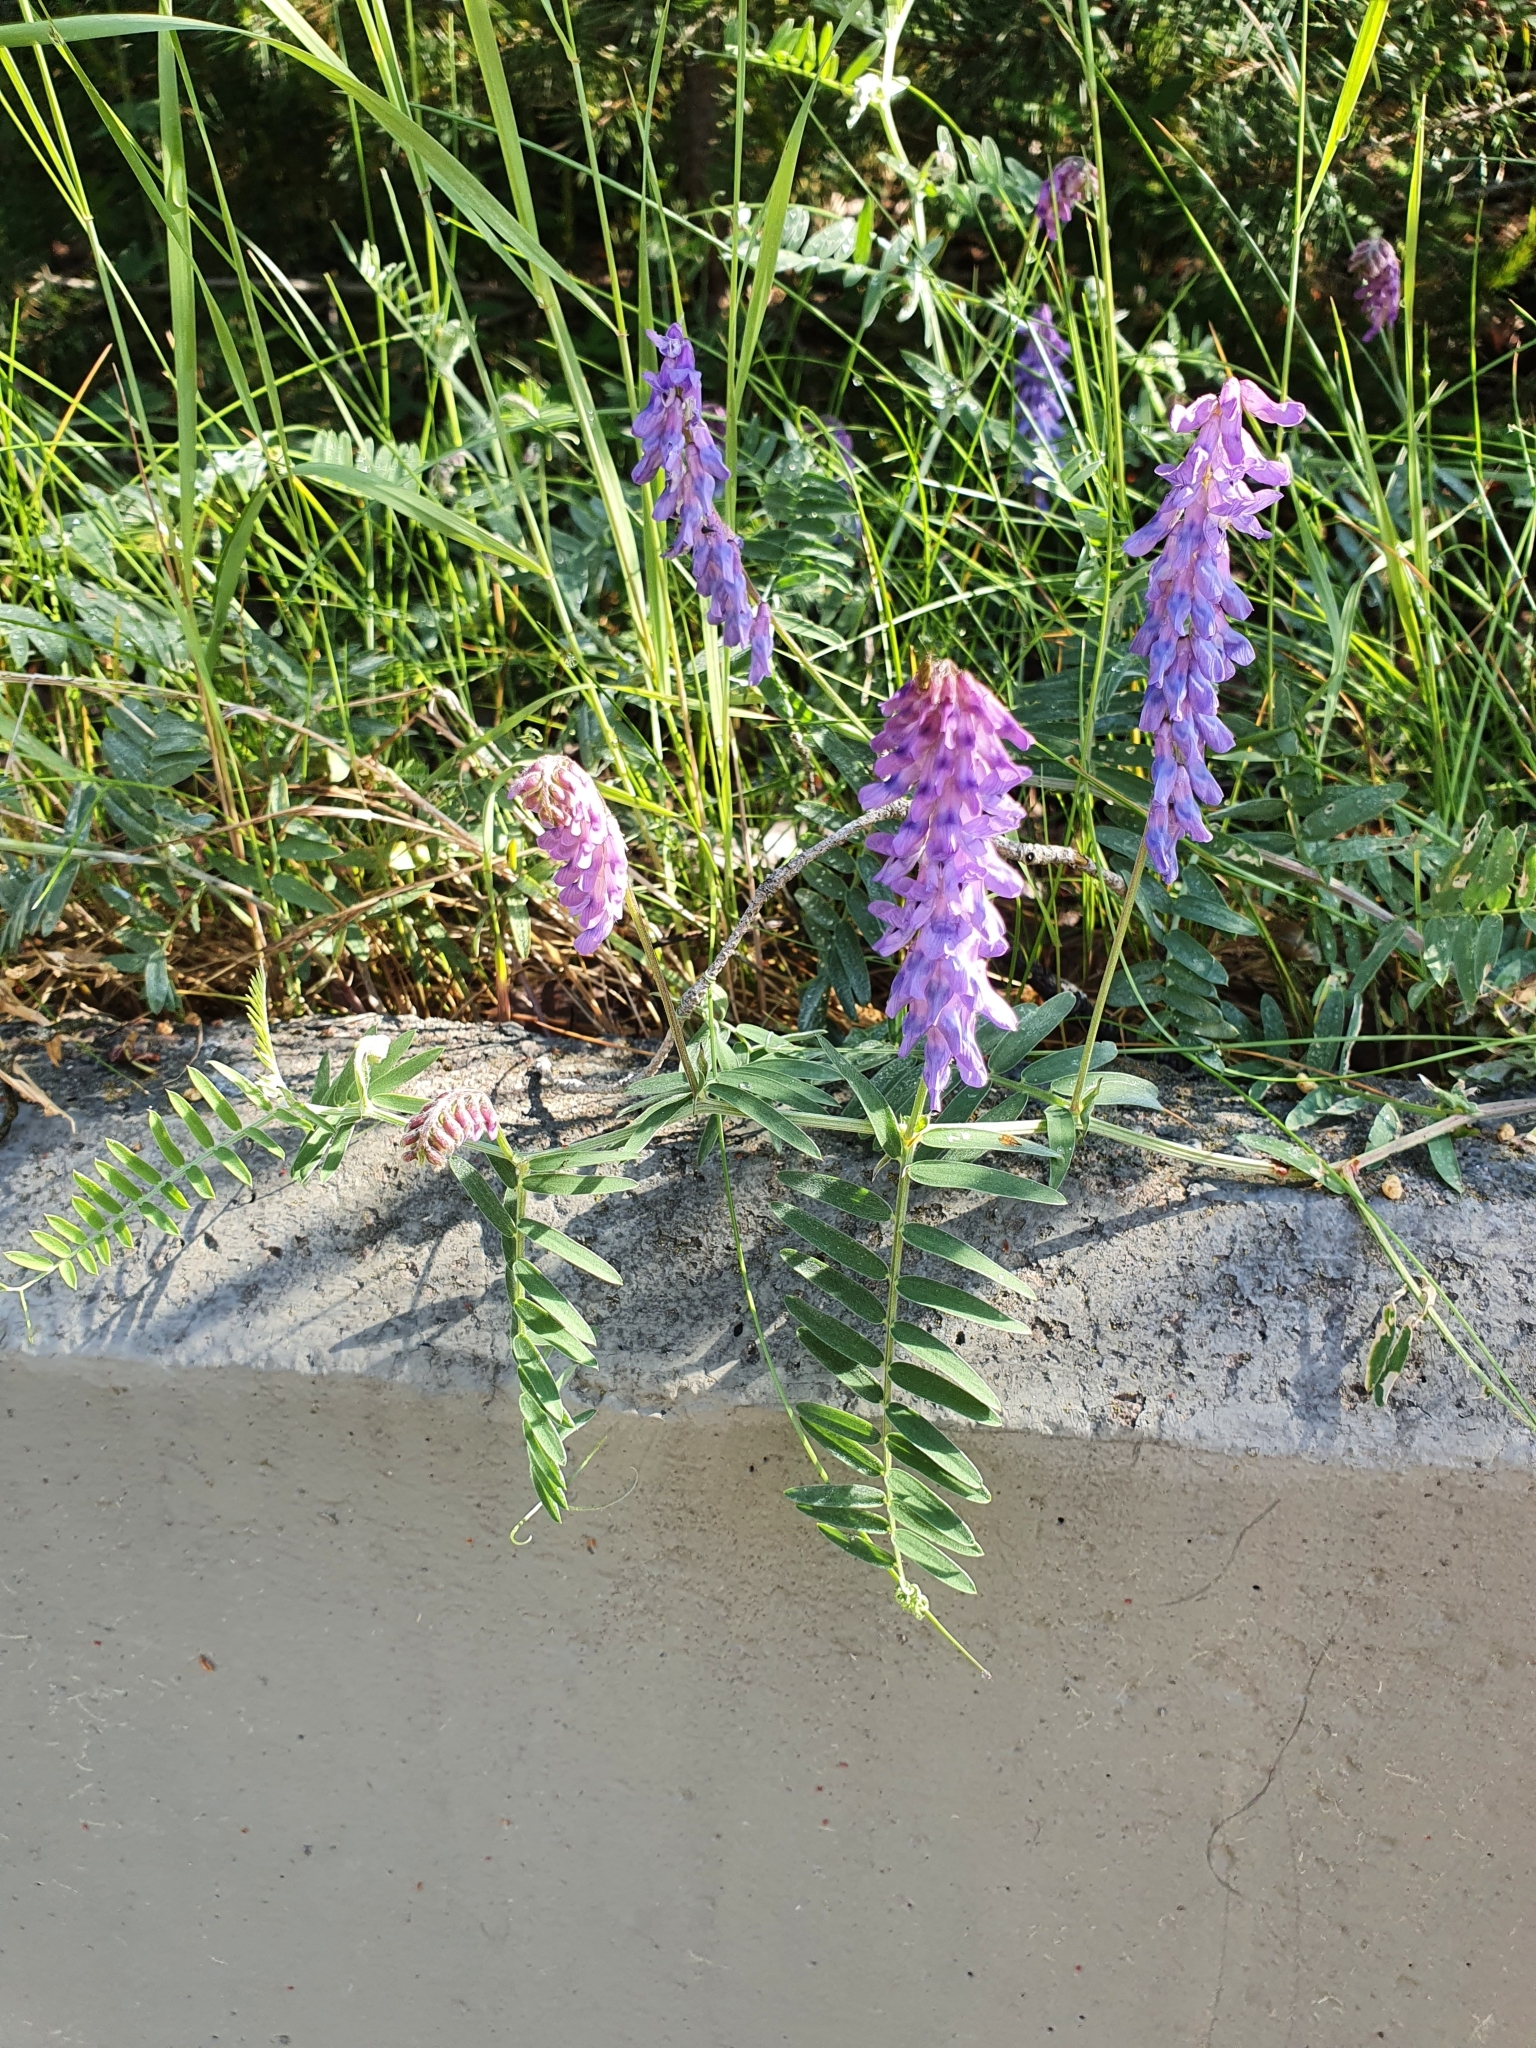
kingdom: Plantae
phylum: Tracheophyta
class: Magnoliopsida
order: Fabales
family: Fabaceae
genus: Vicia
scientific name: Vicia cracca
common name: Bird vetch
